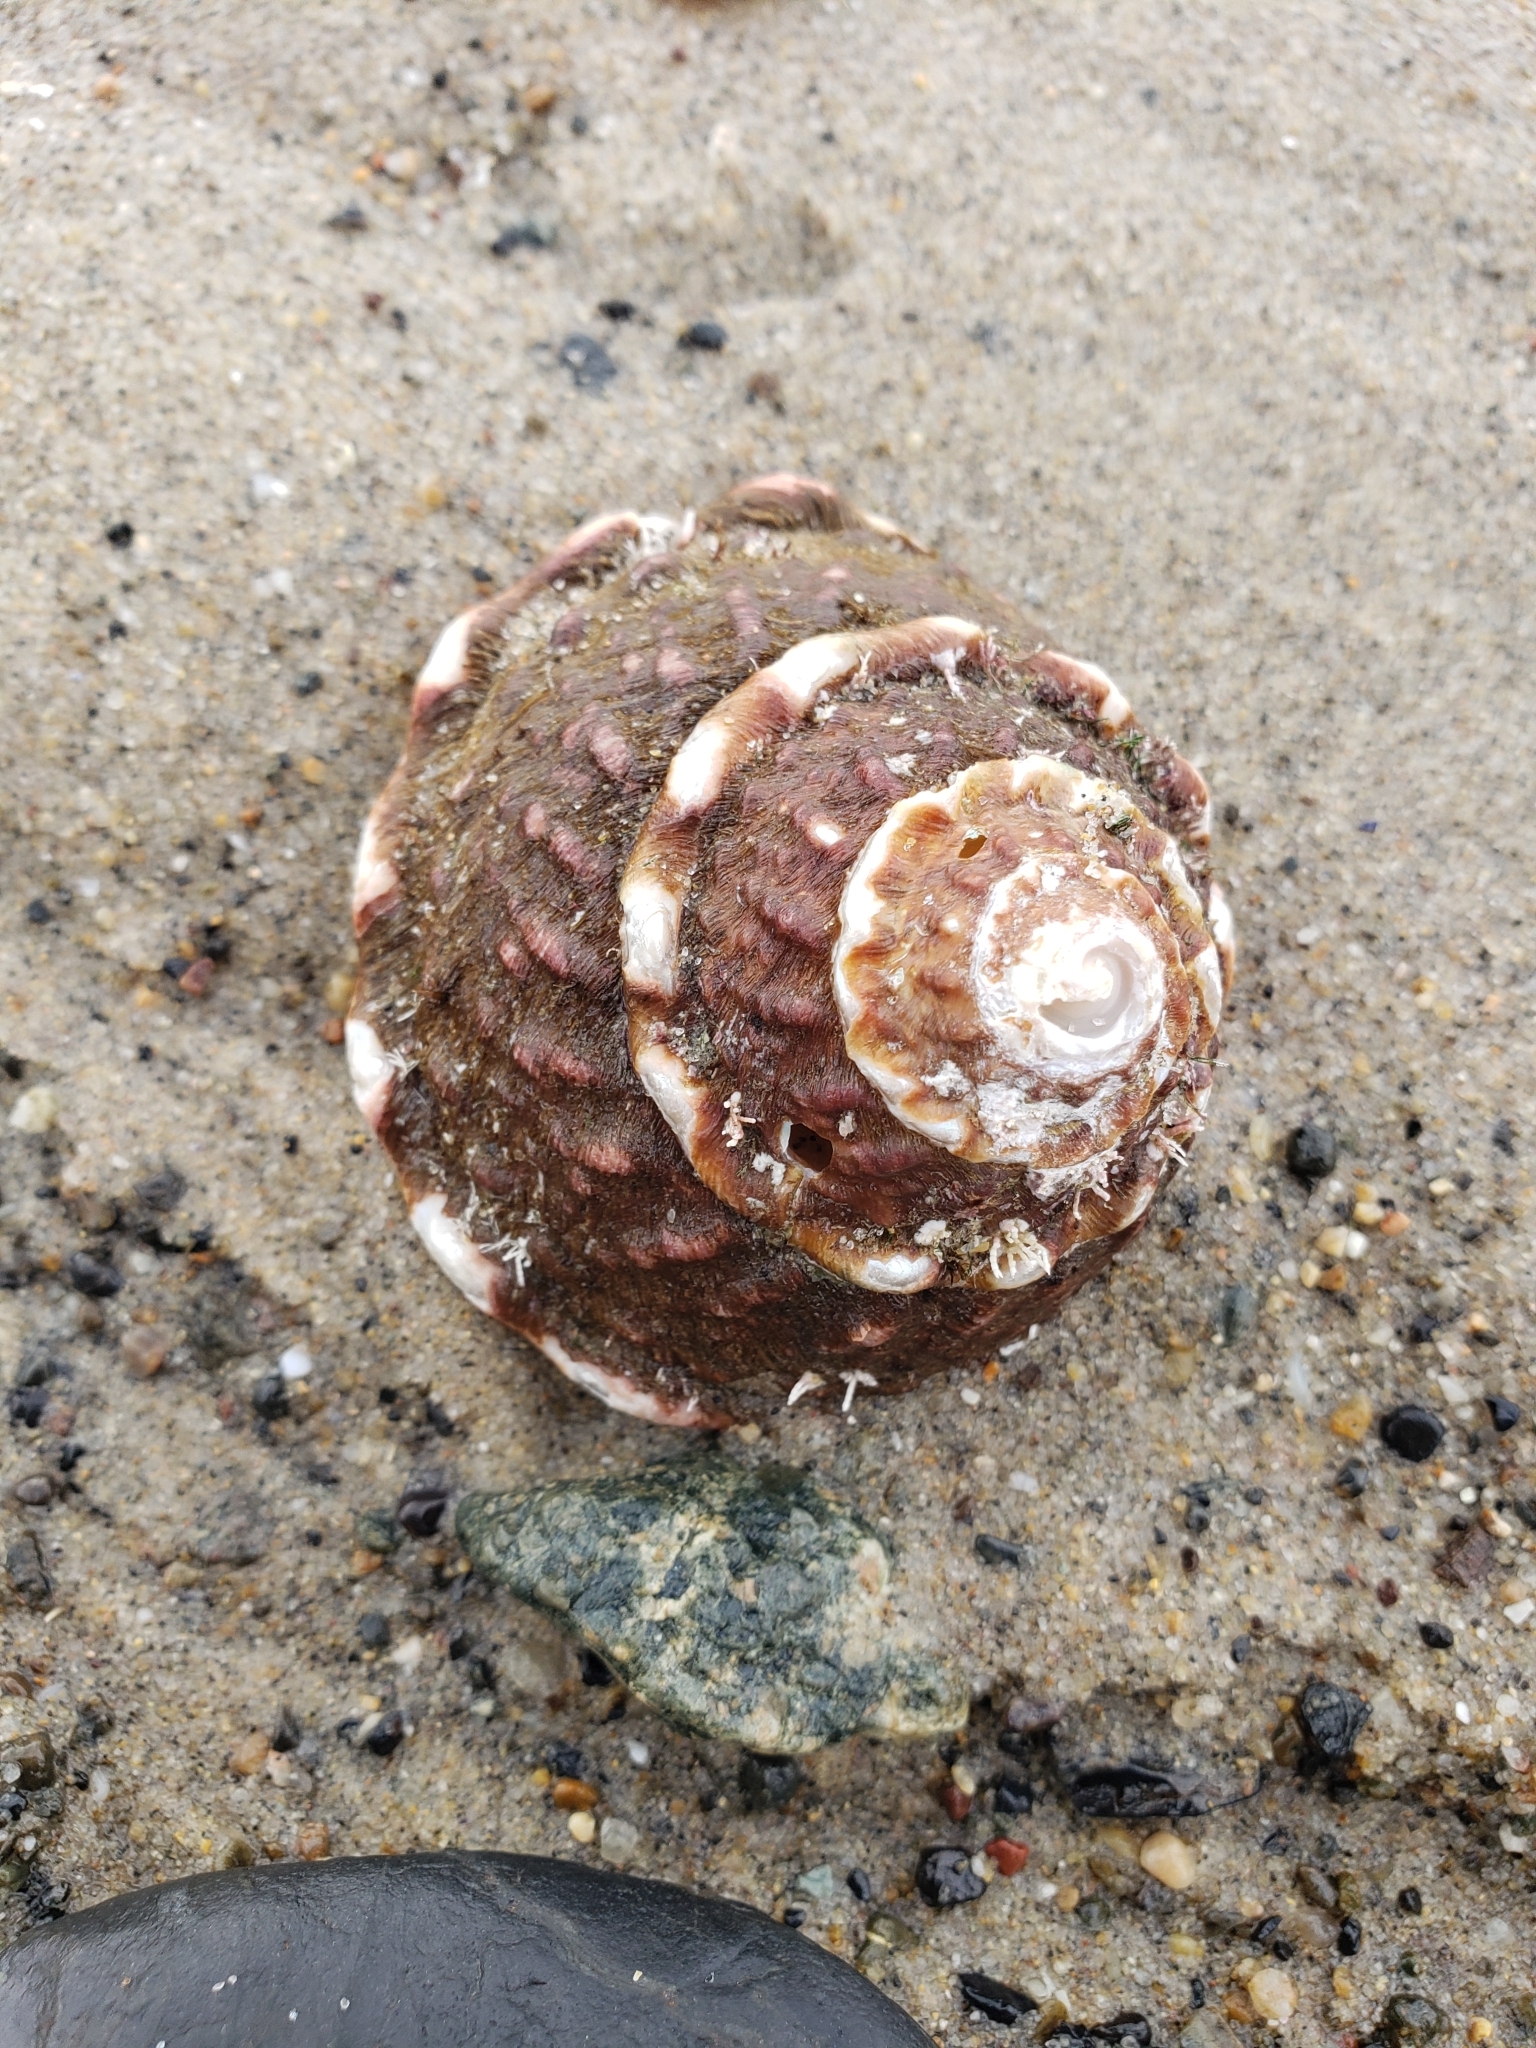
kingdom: Animalia
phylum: Mollusca
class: Gastropoda
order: Trochida
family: Turbinidae
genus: Megastraea
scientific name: Megastraea undosa
